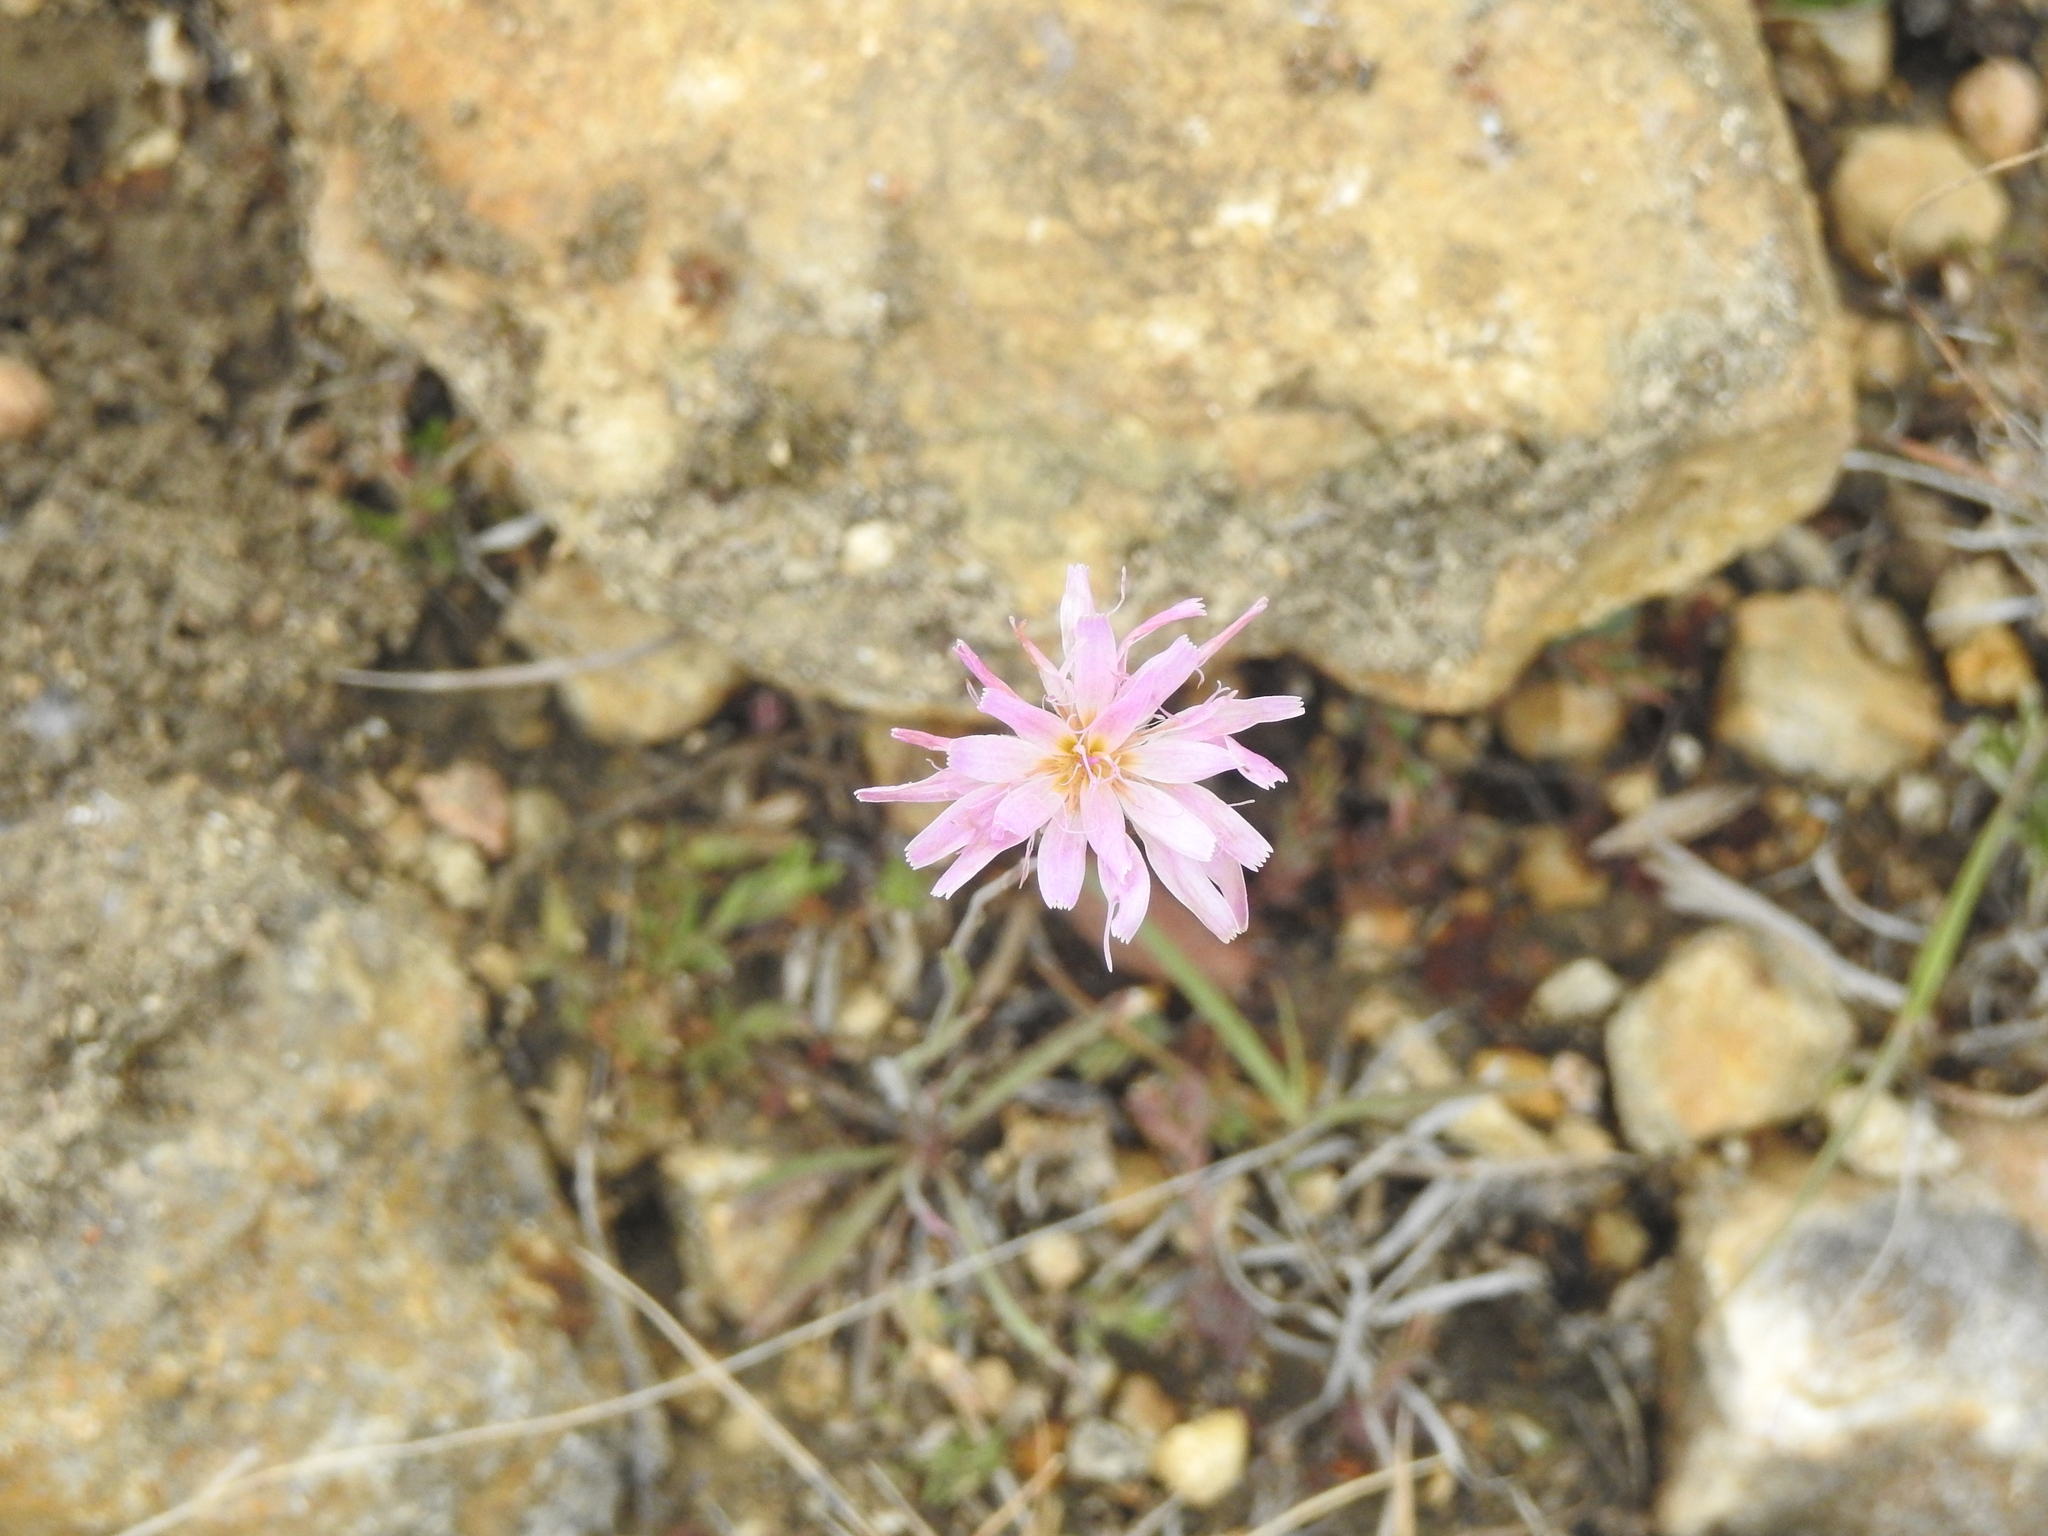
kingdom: Plantae
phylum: Tracheophyta
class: Magnoliopsida
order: Asterales
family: Asteraceae
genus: Pinaropappus
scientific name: Pinaropappus roseus
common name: Rock-lettuce
